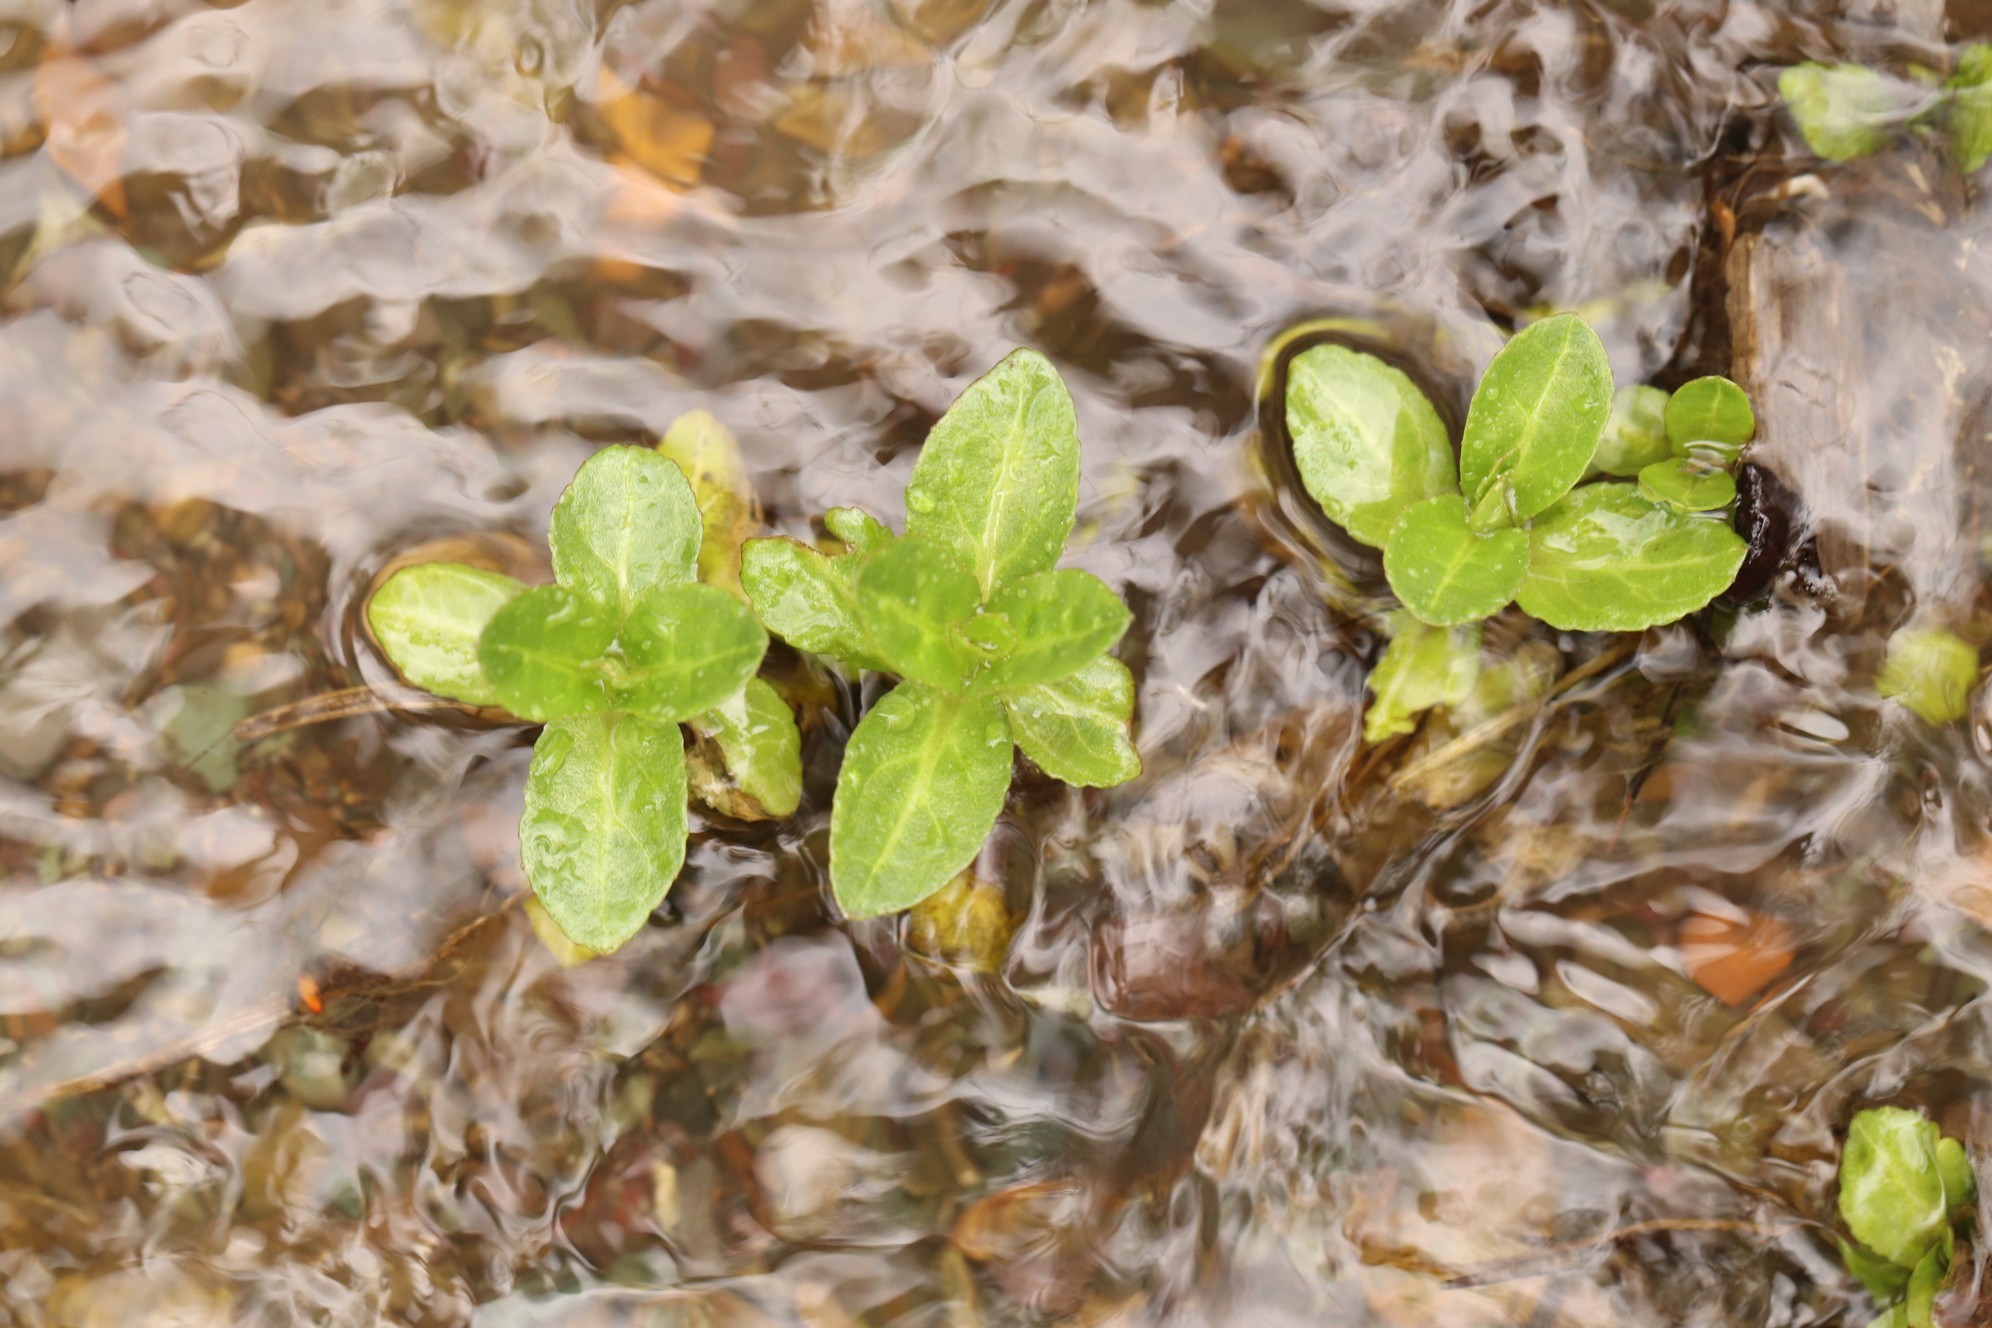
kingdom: Plantae
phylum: Tracheophyta
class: Magnoliopsida
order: Lamiales
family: Plantaginaceae
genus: Veronica
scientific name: Veronica beccabunga
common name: Brooklime
